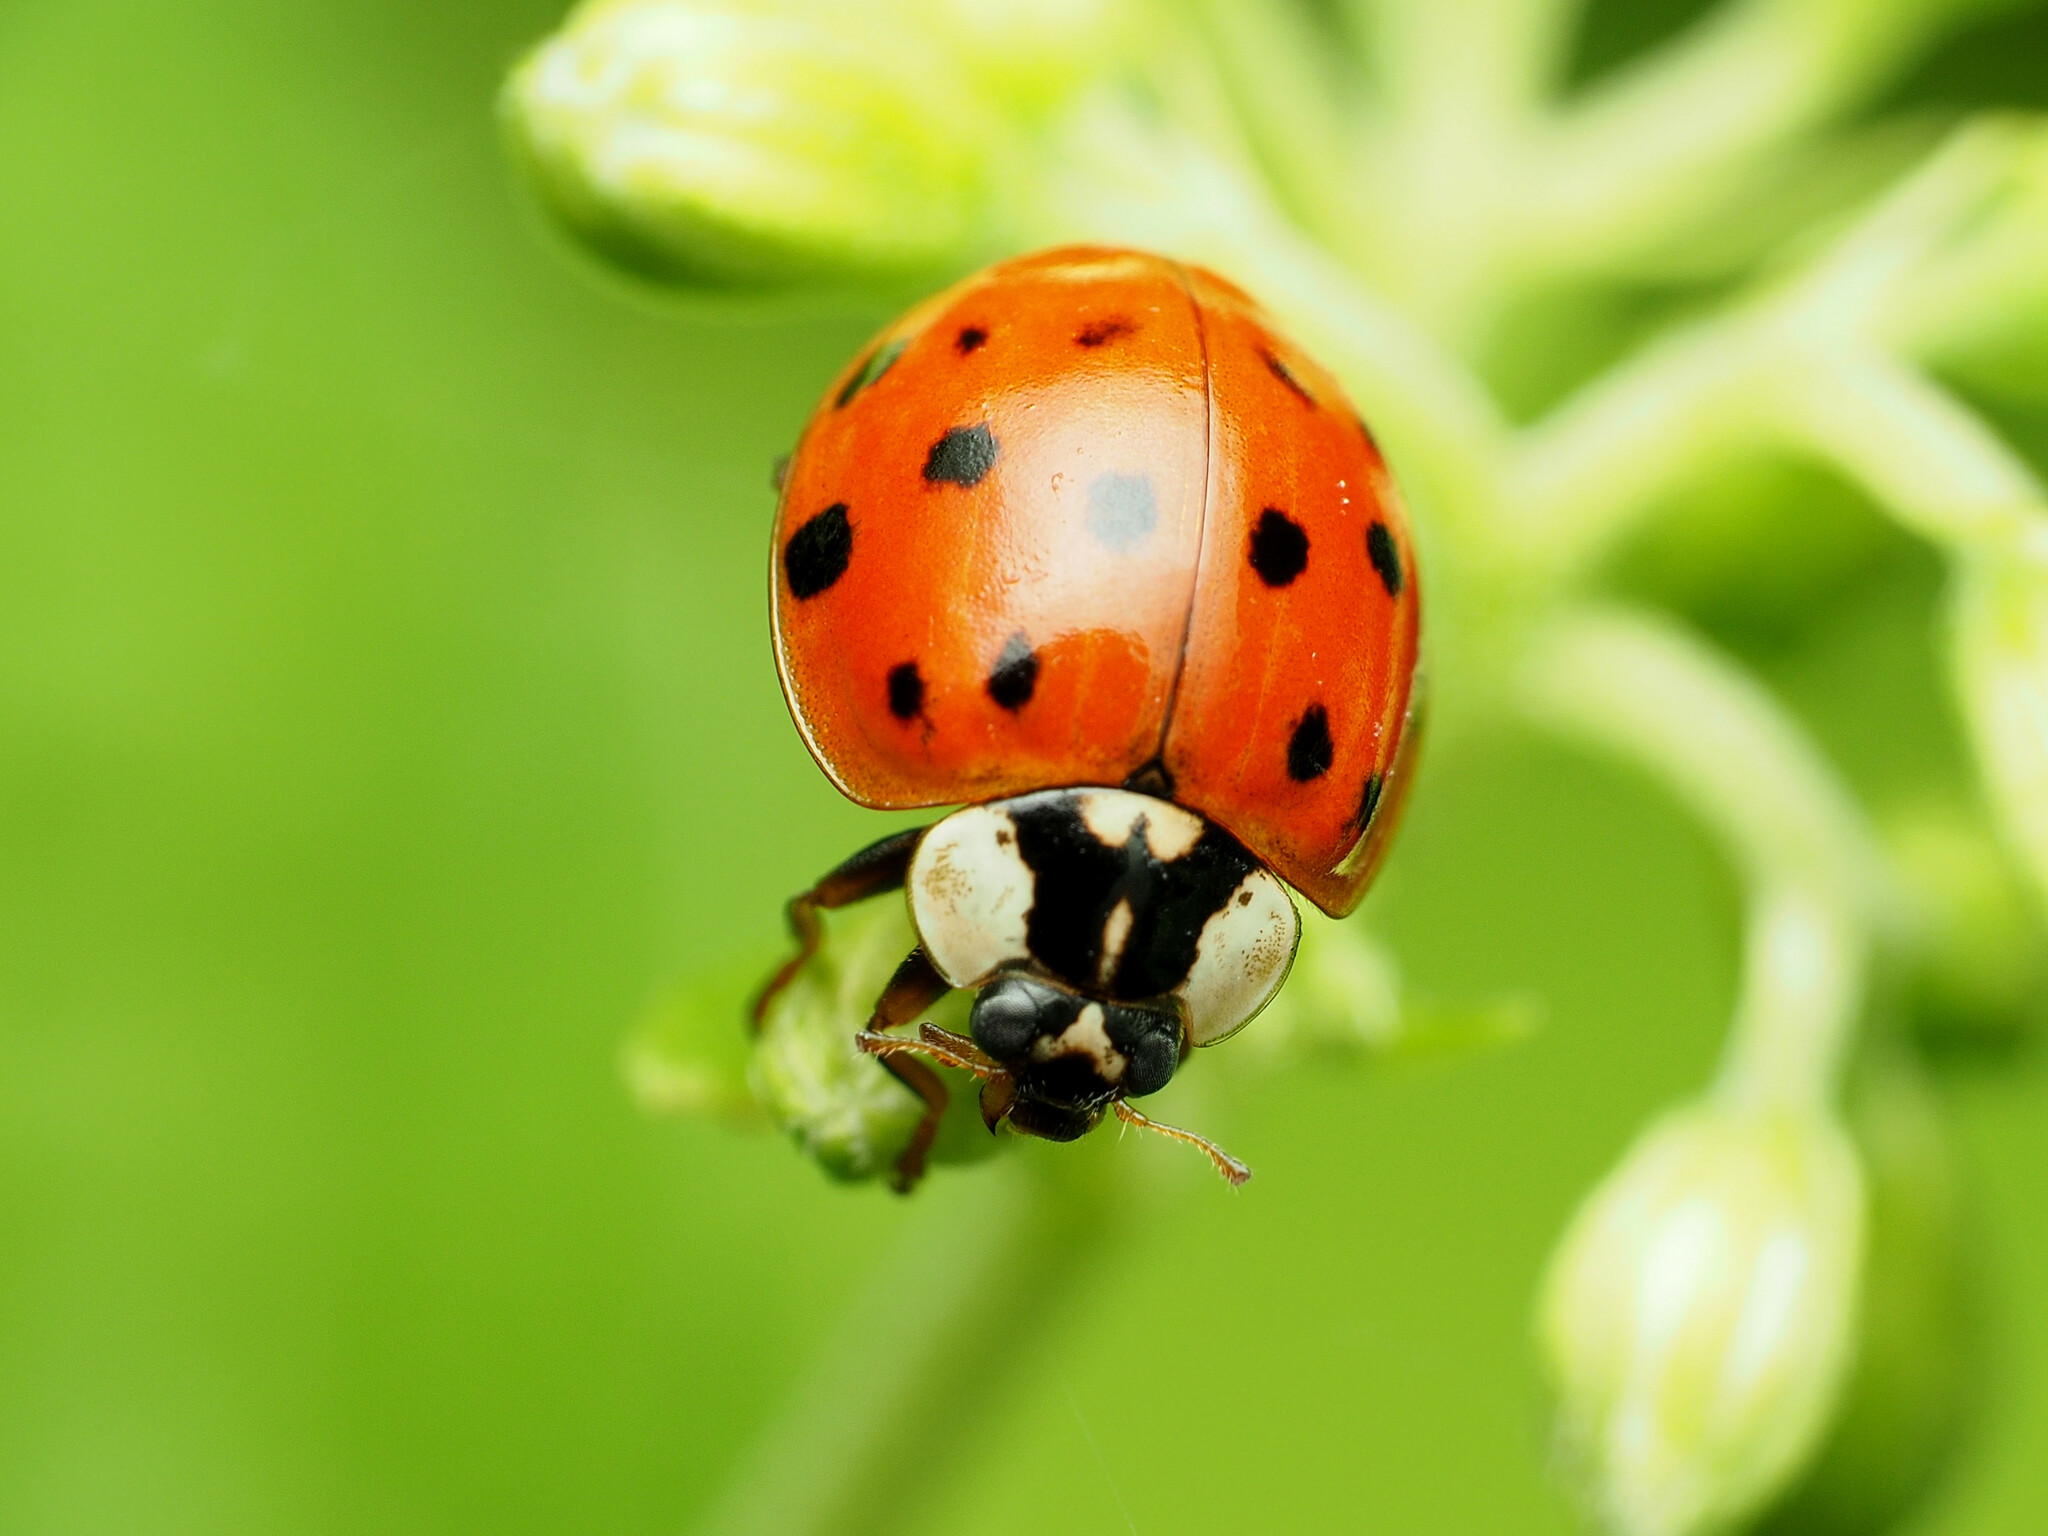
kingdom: Animalia
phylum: Arthropoda
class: Insecta
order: Coleoptera
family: Coccinellidae
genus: Harmonia
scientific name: Harmonia axyridis
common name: Harlequin ladybird
